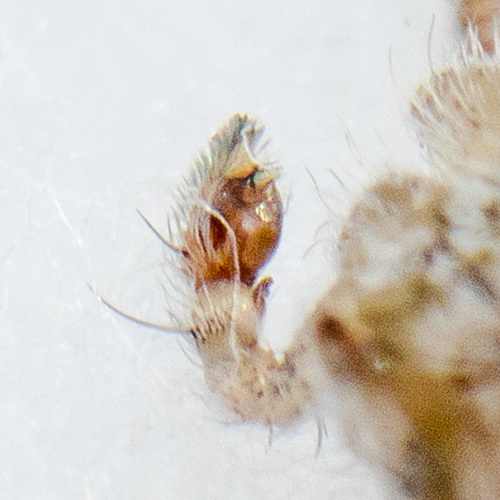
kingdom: Animalia
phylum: Arthropoda
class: Arachnida
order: Araneae
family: Philodromidae
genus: Thanatus
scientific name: Thanatus fabricii
